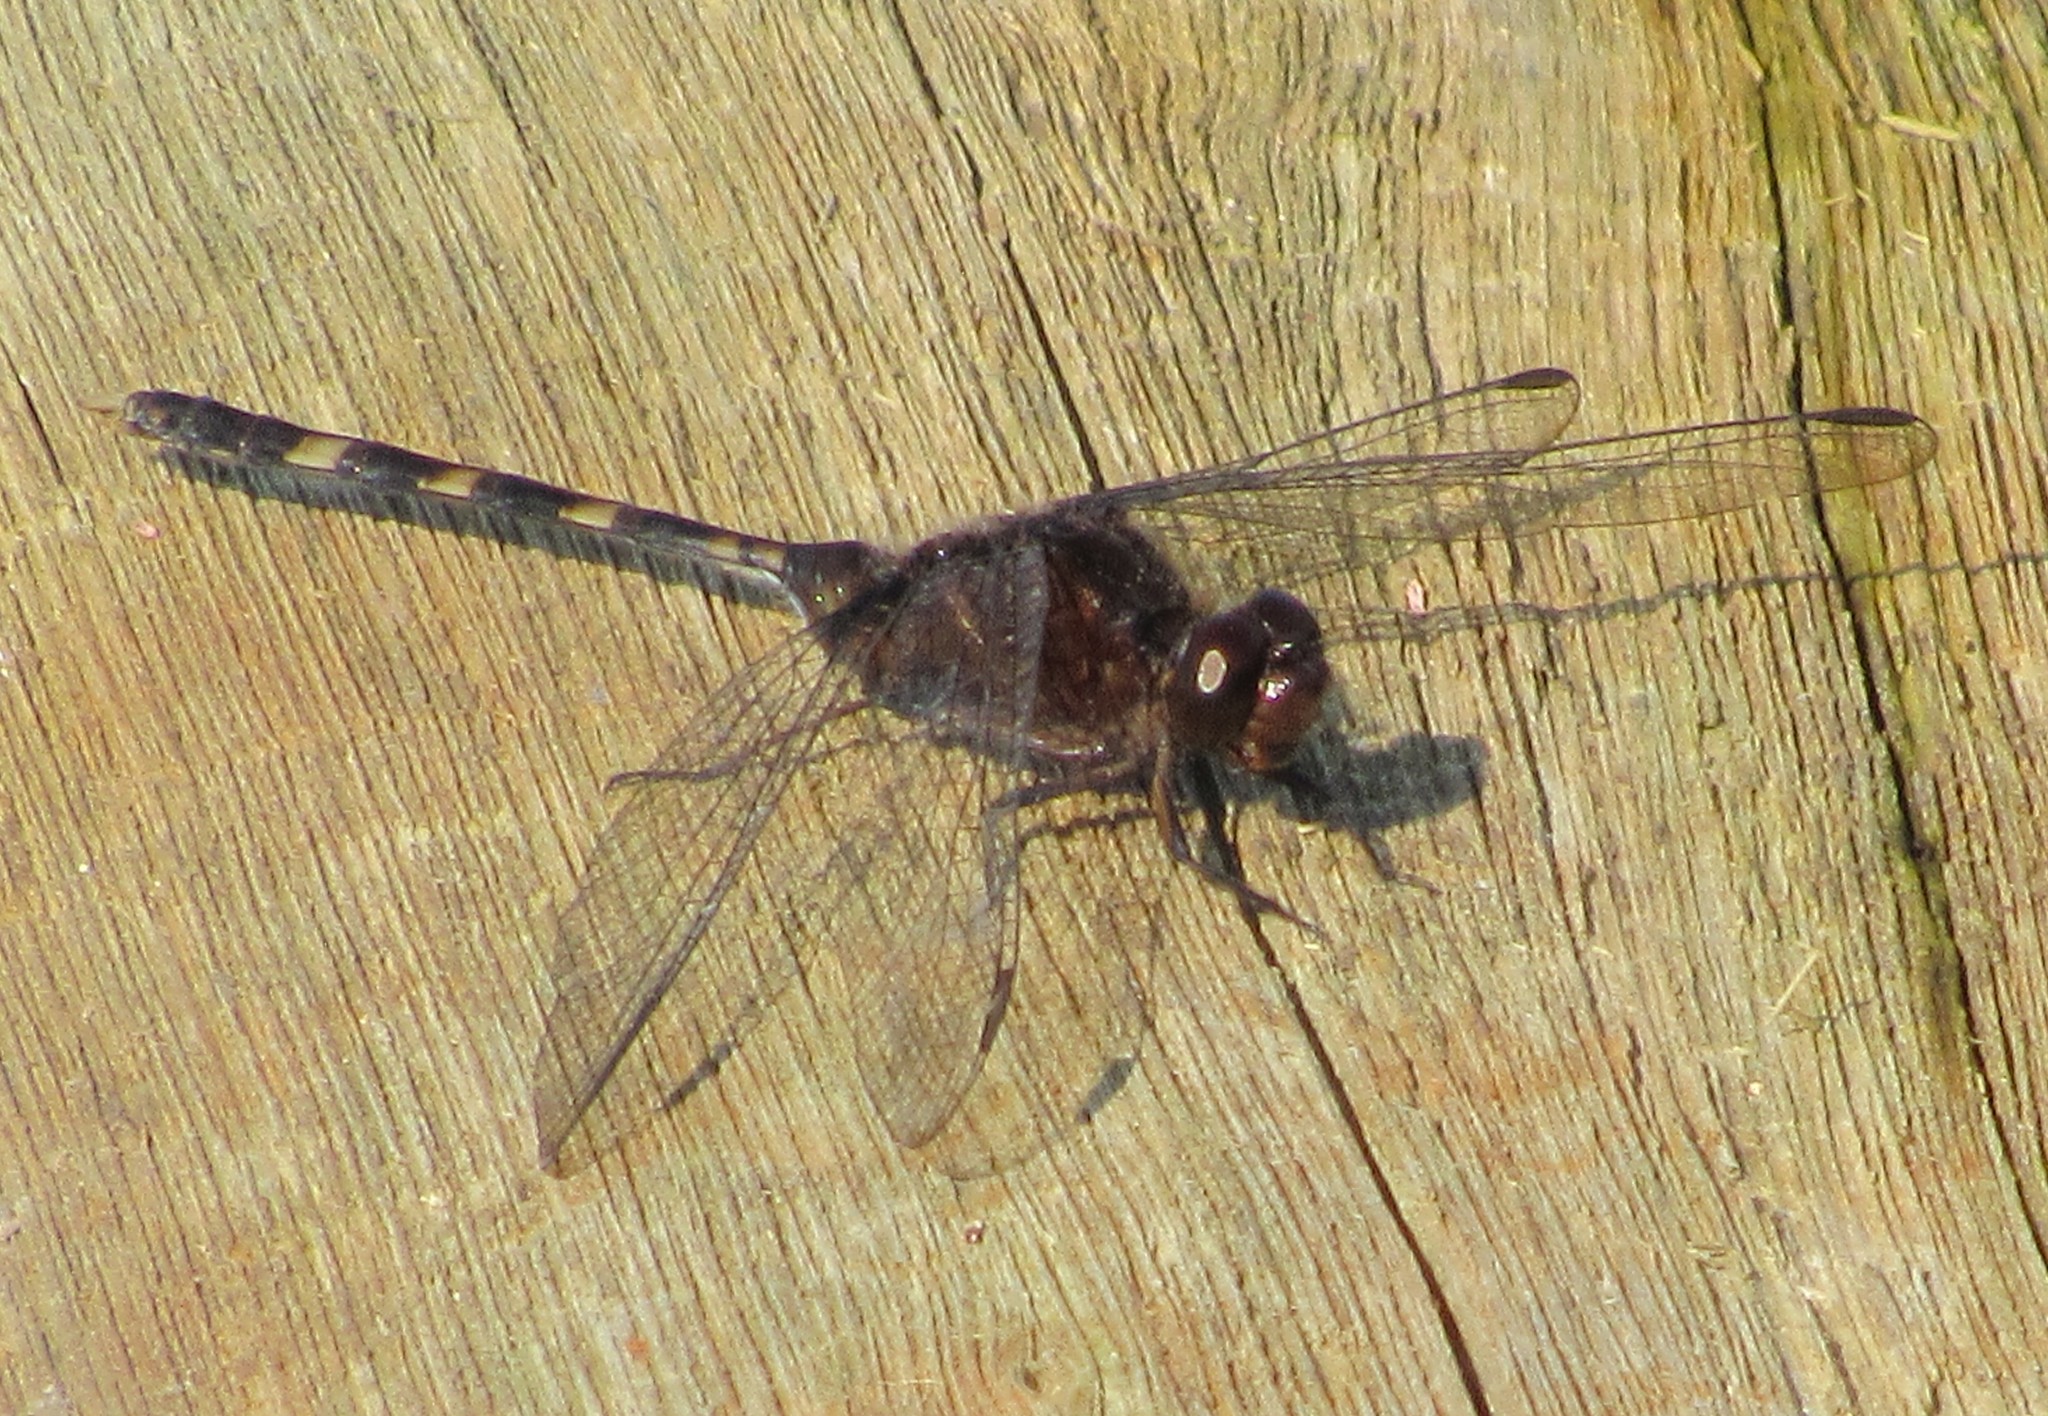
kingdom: Animalia
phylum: Arthropoda
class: Insecta
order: Odonata
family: Libellulidae
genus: Erythemis
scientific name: Erythemis plebeja
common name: Pin-tailed pondhawk
